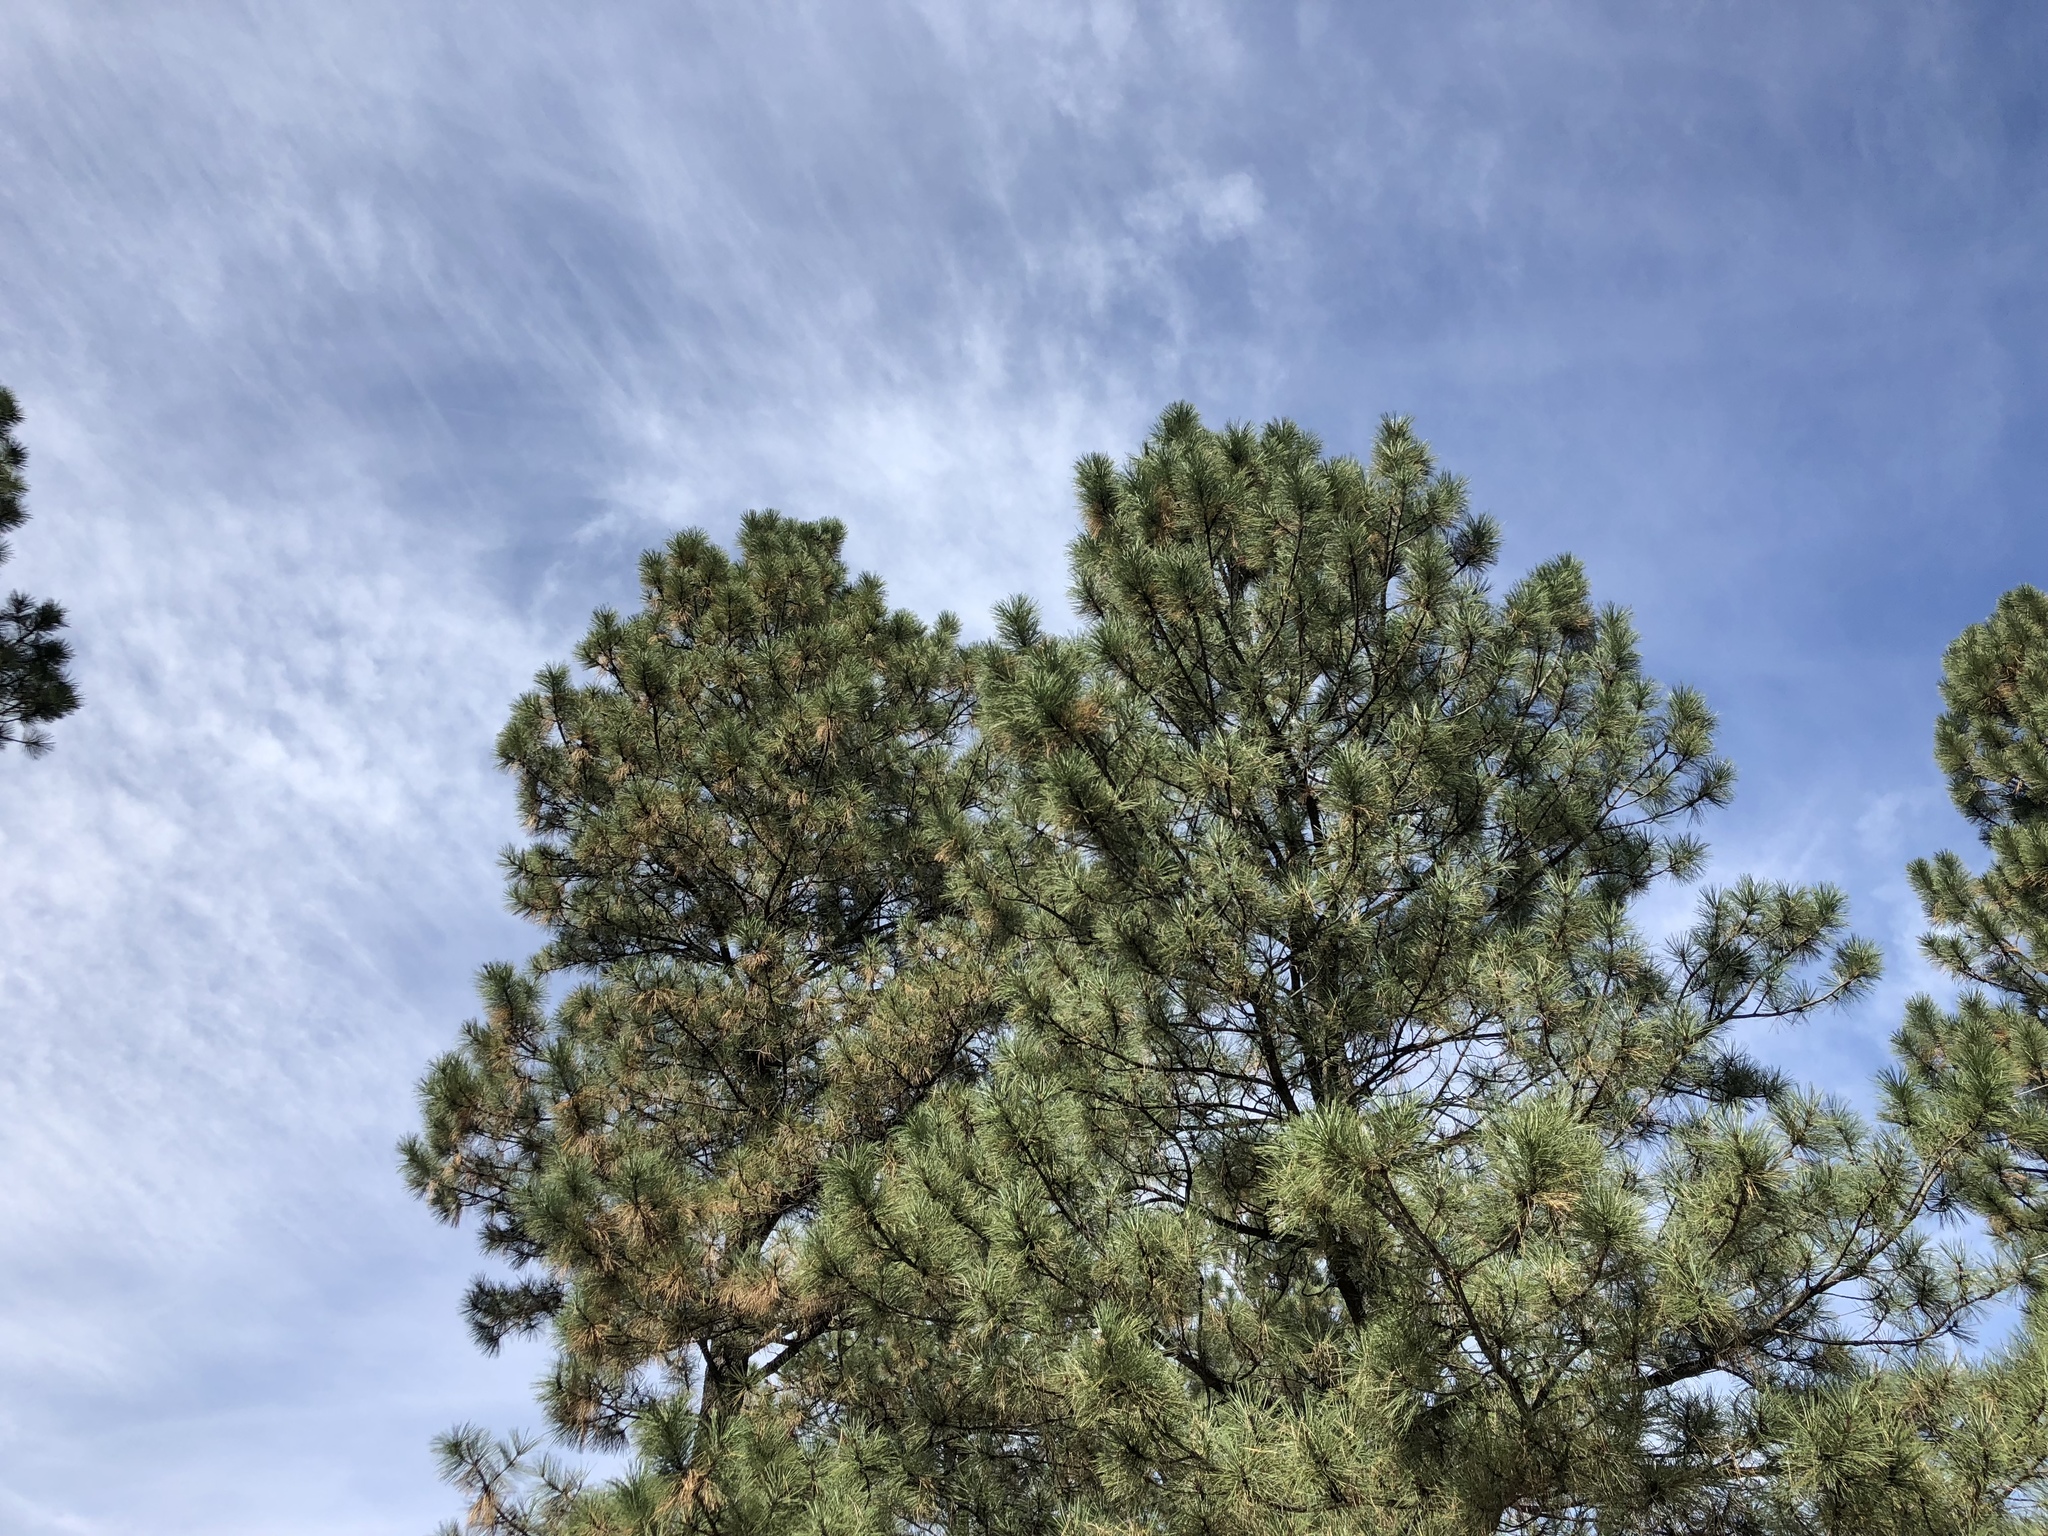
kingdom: Plantae
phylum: Tracheophyta
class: Pinopsida
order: Pinales
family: Pinaceae
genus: Pinus
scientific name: Pinus ponderosa
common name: Western yellow-pine
